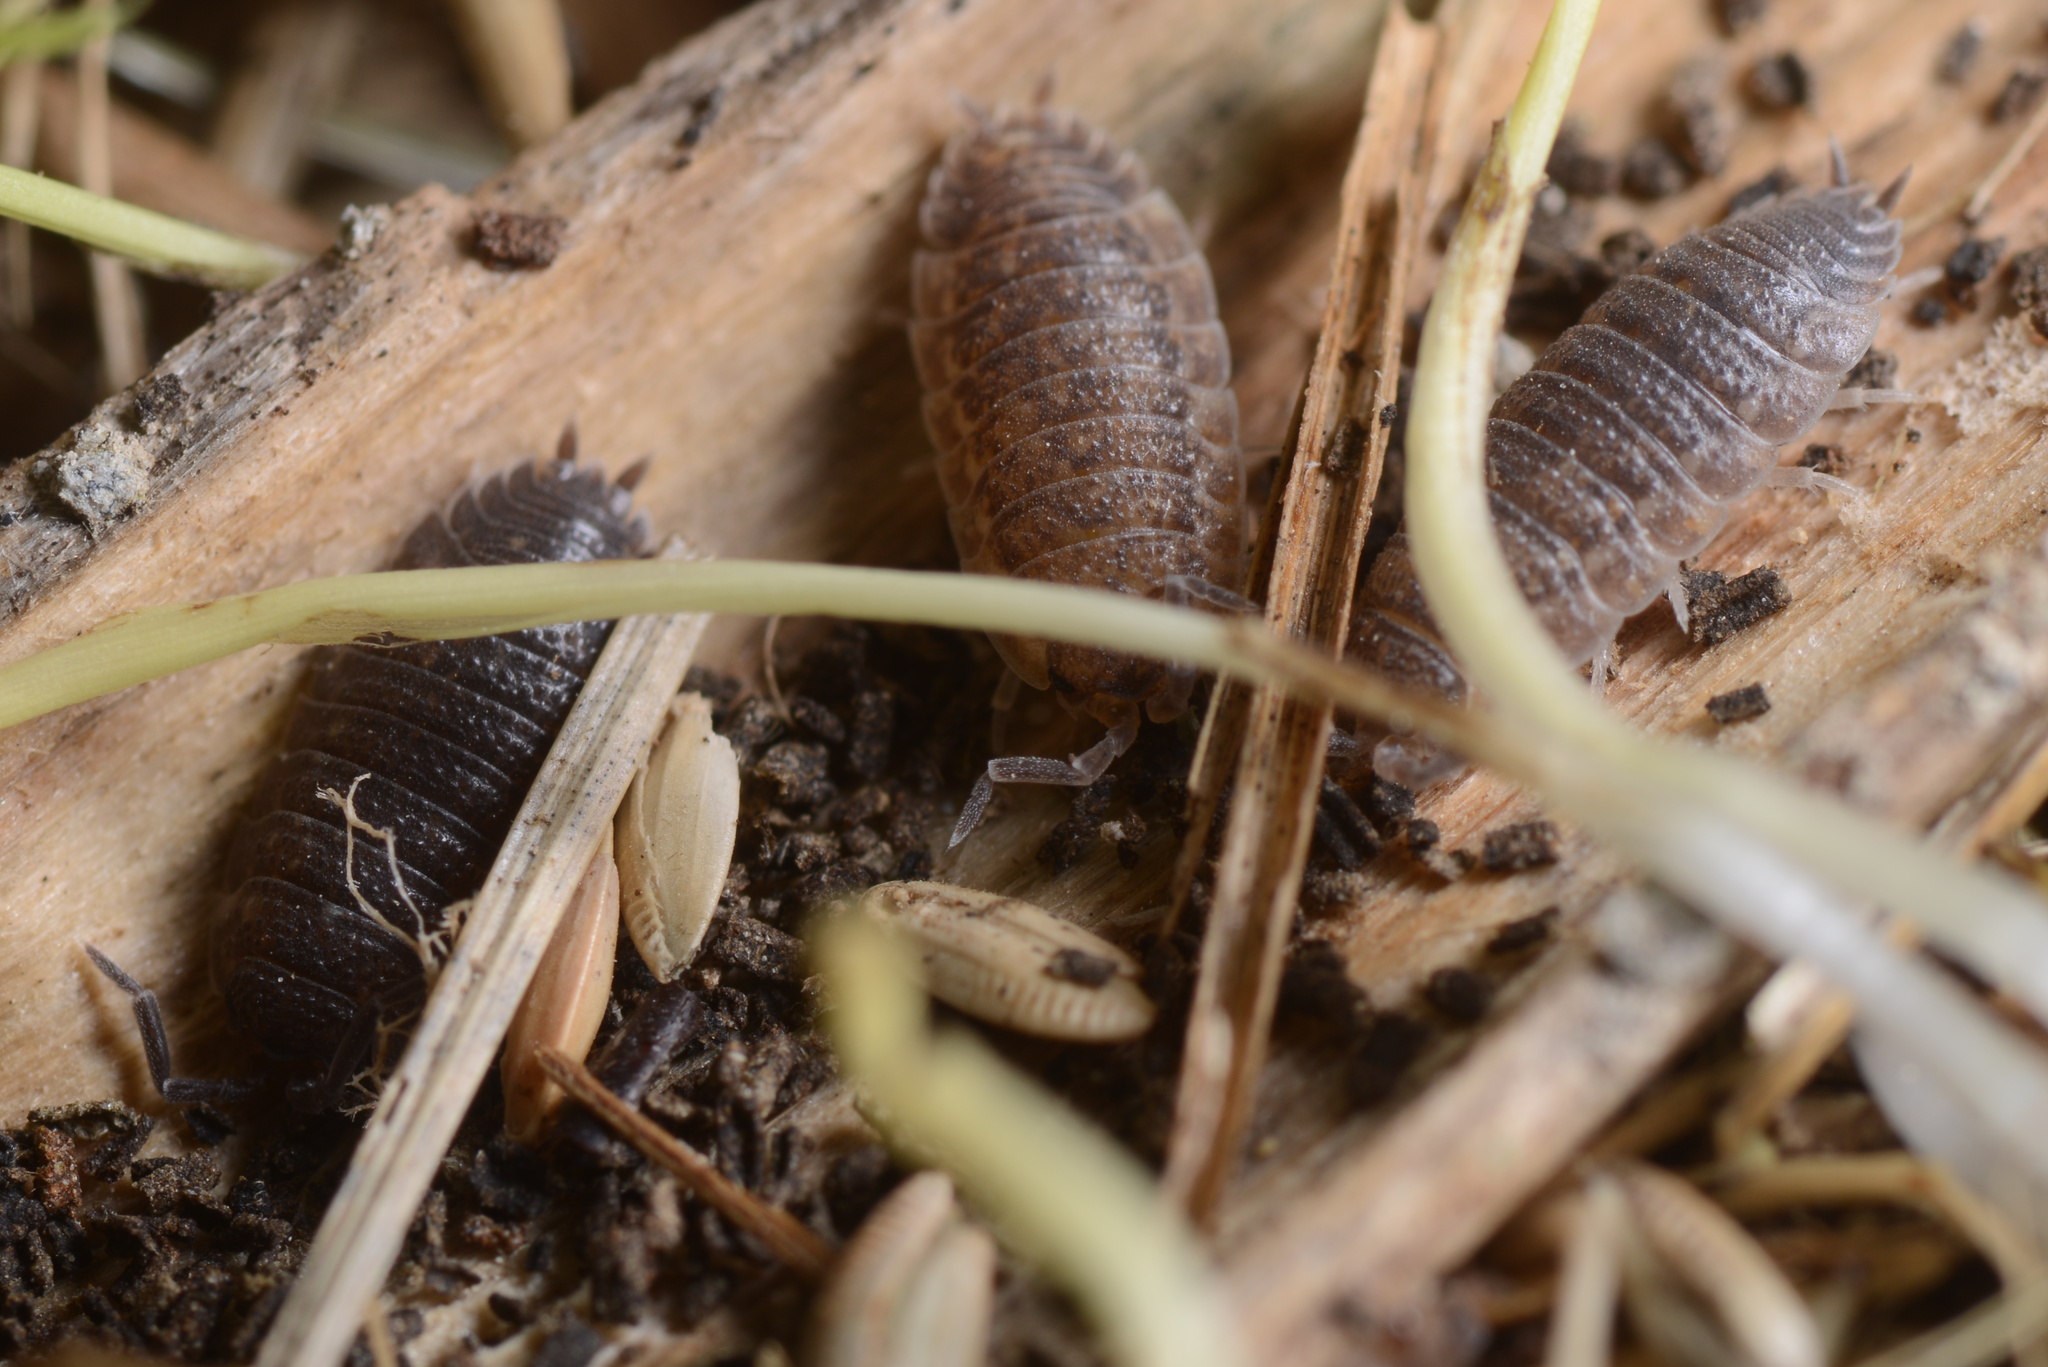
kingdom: Animalia
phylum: Arthropoda
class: Malacostraca
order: Isopoda
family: Porcellionidae
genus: Porcellio
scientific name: Porcellio scaber
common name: Common rough woodlouse
